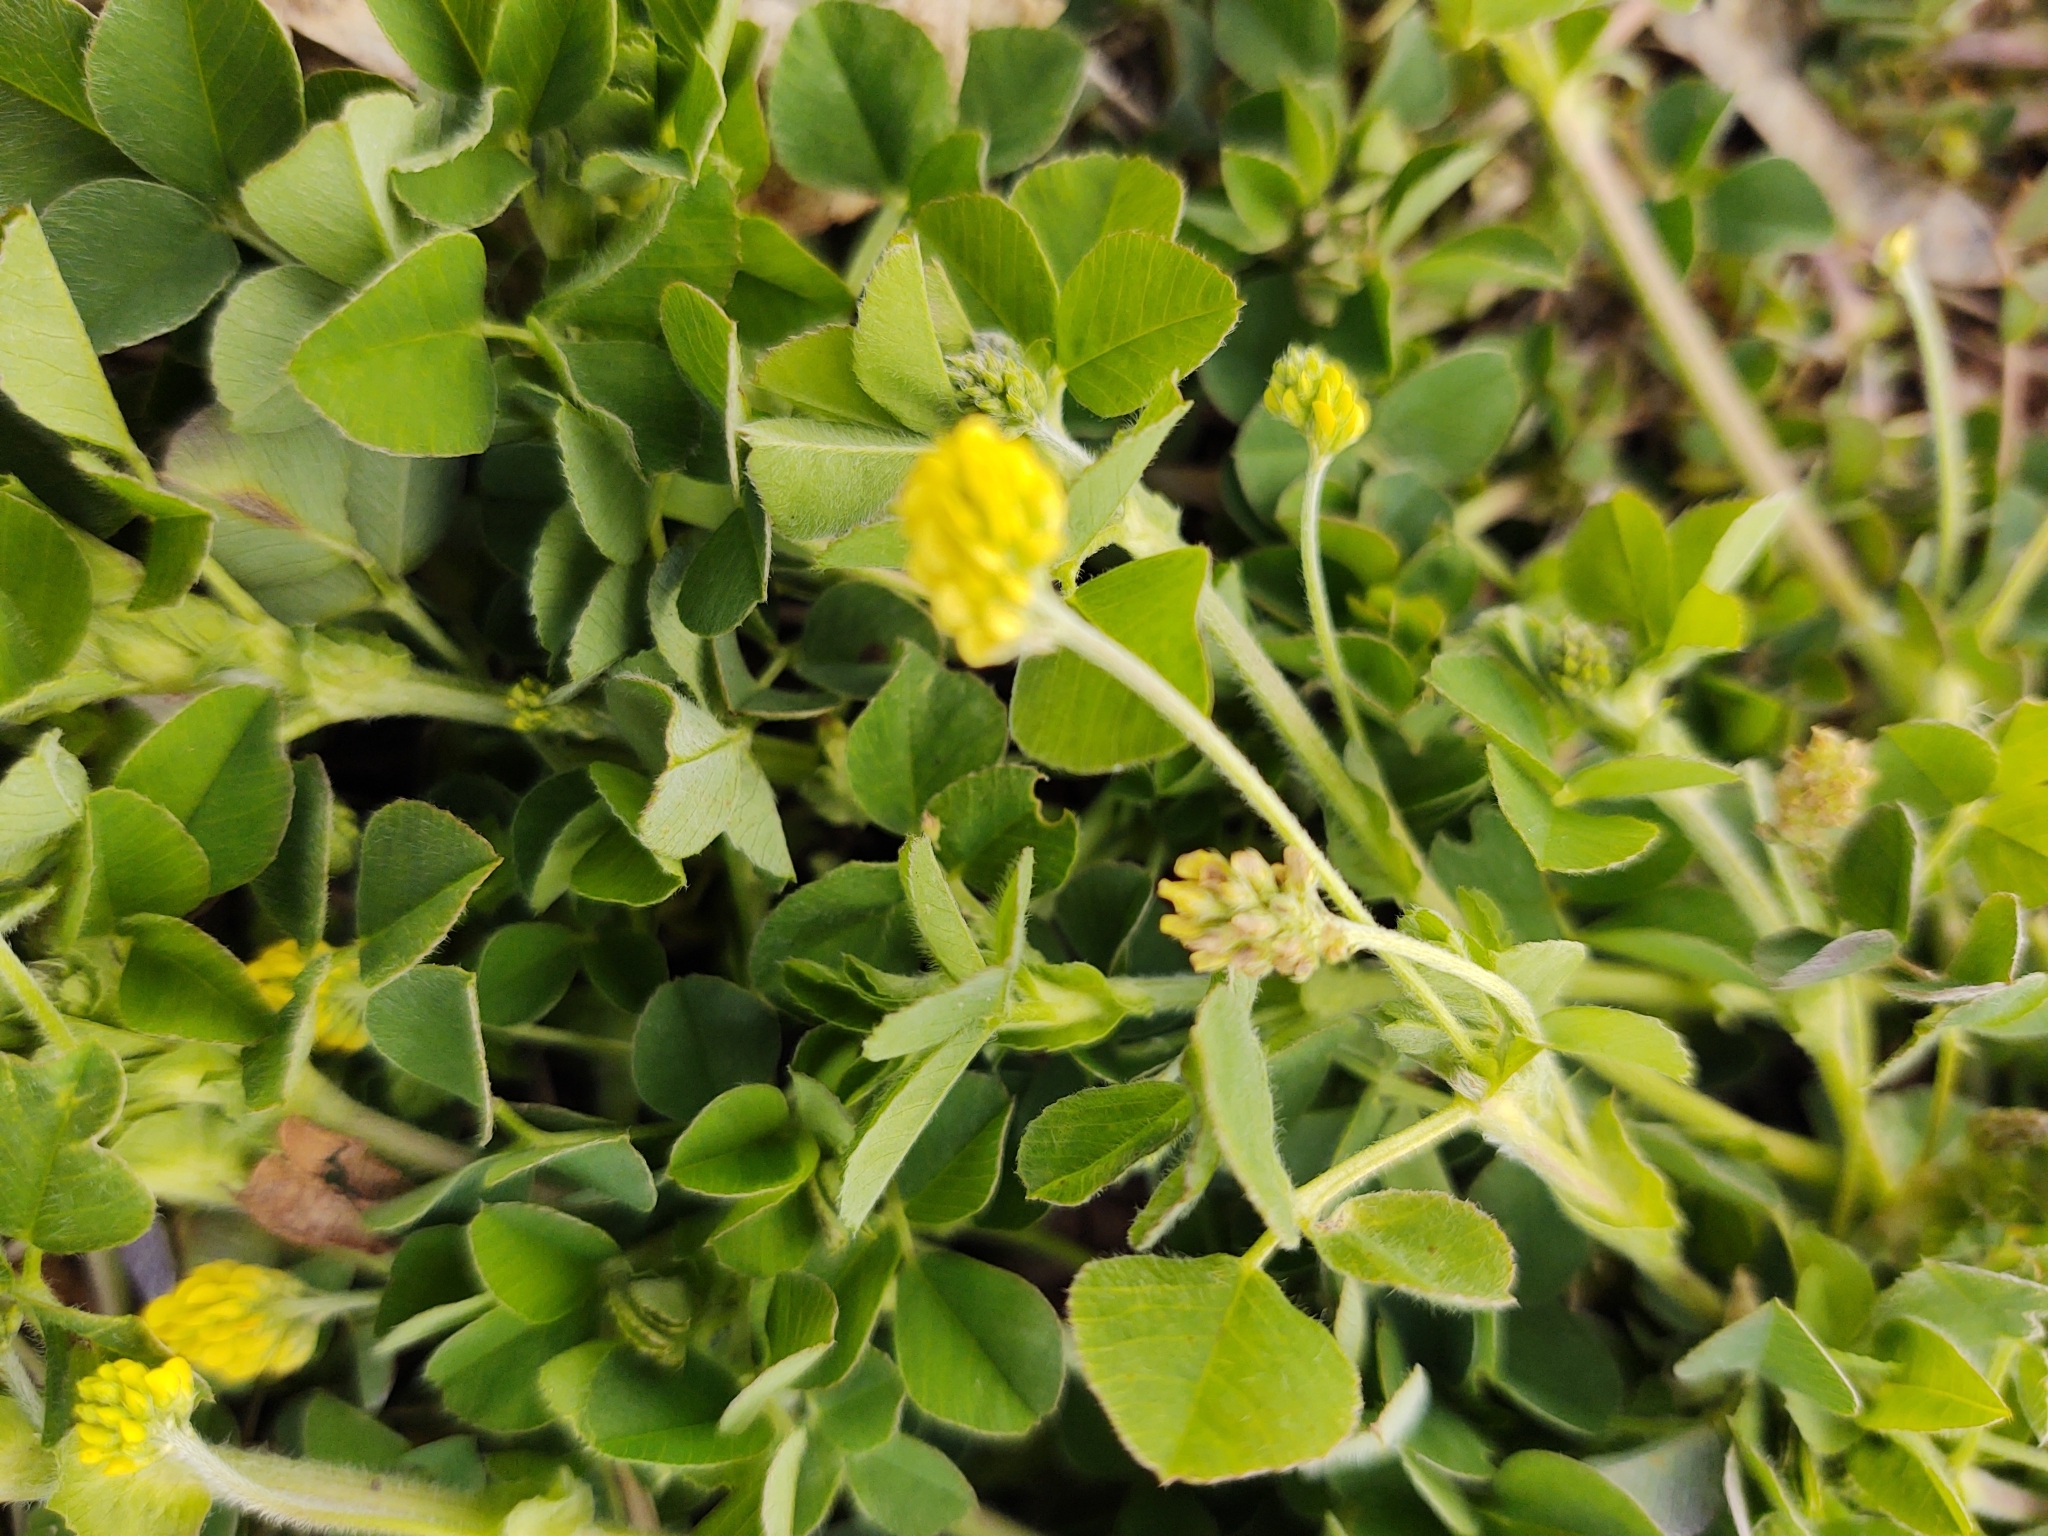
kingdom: Plantae
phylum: Tracheophyta
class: Magnoliopsida
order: Fabales
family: Fabaceae
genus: Medicago
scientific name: Medicago lupulina
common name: Black medick
